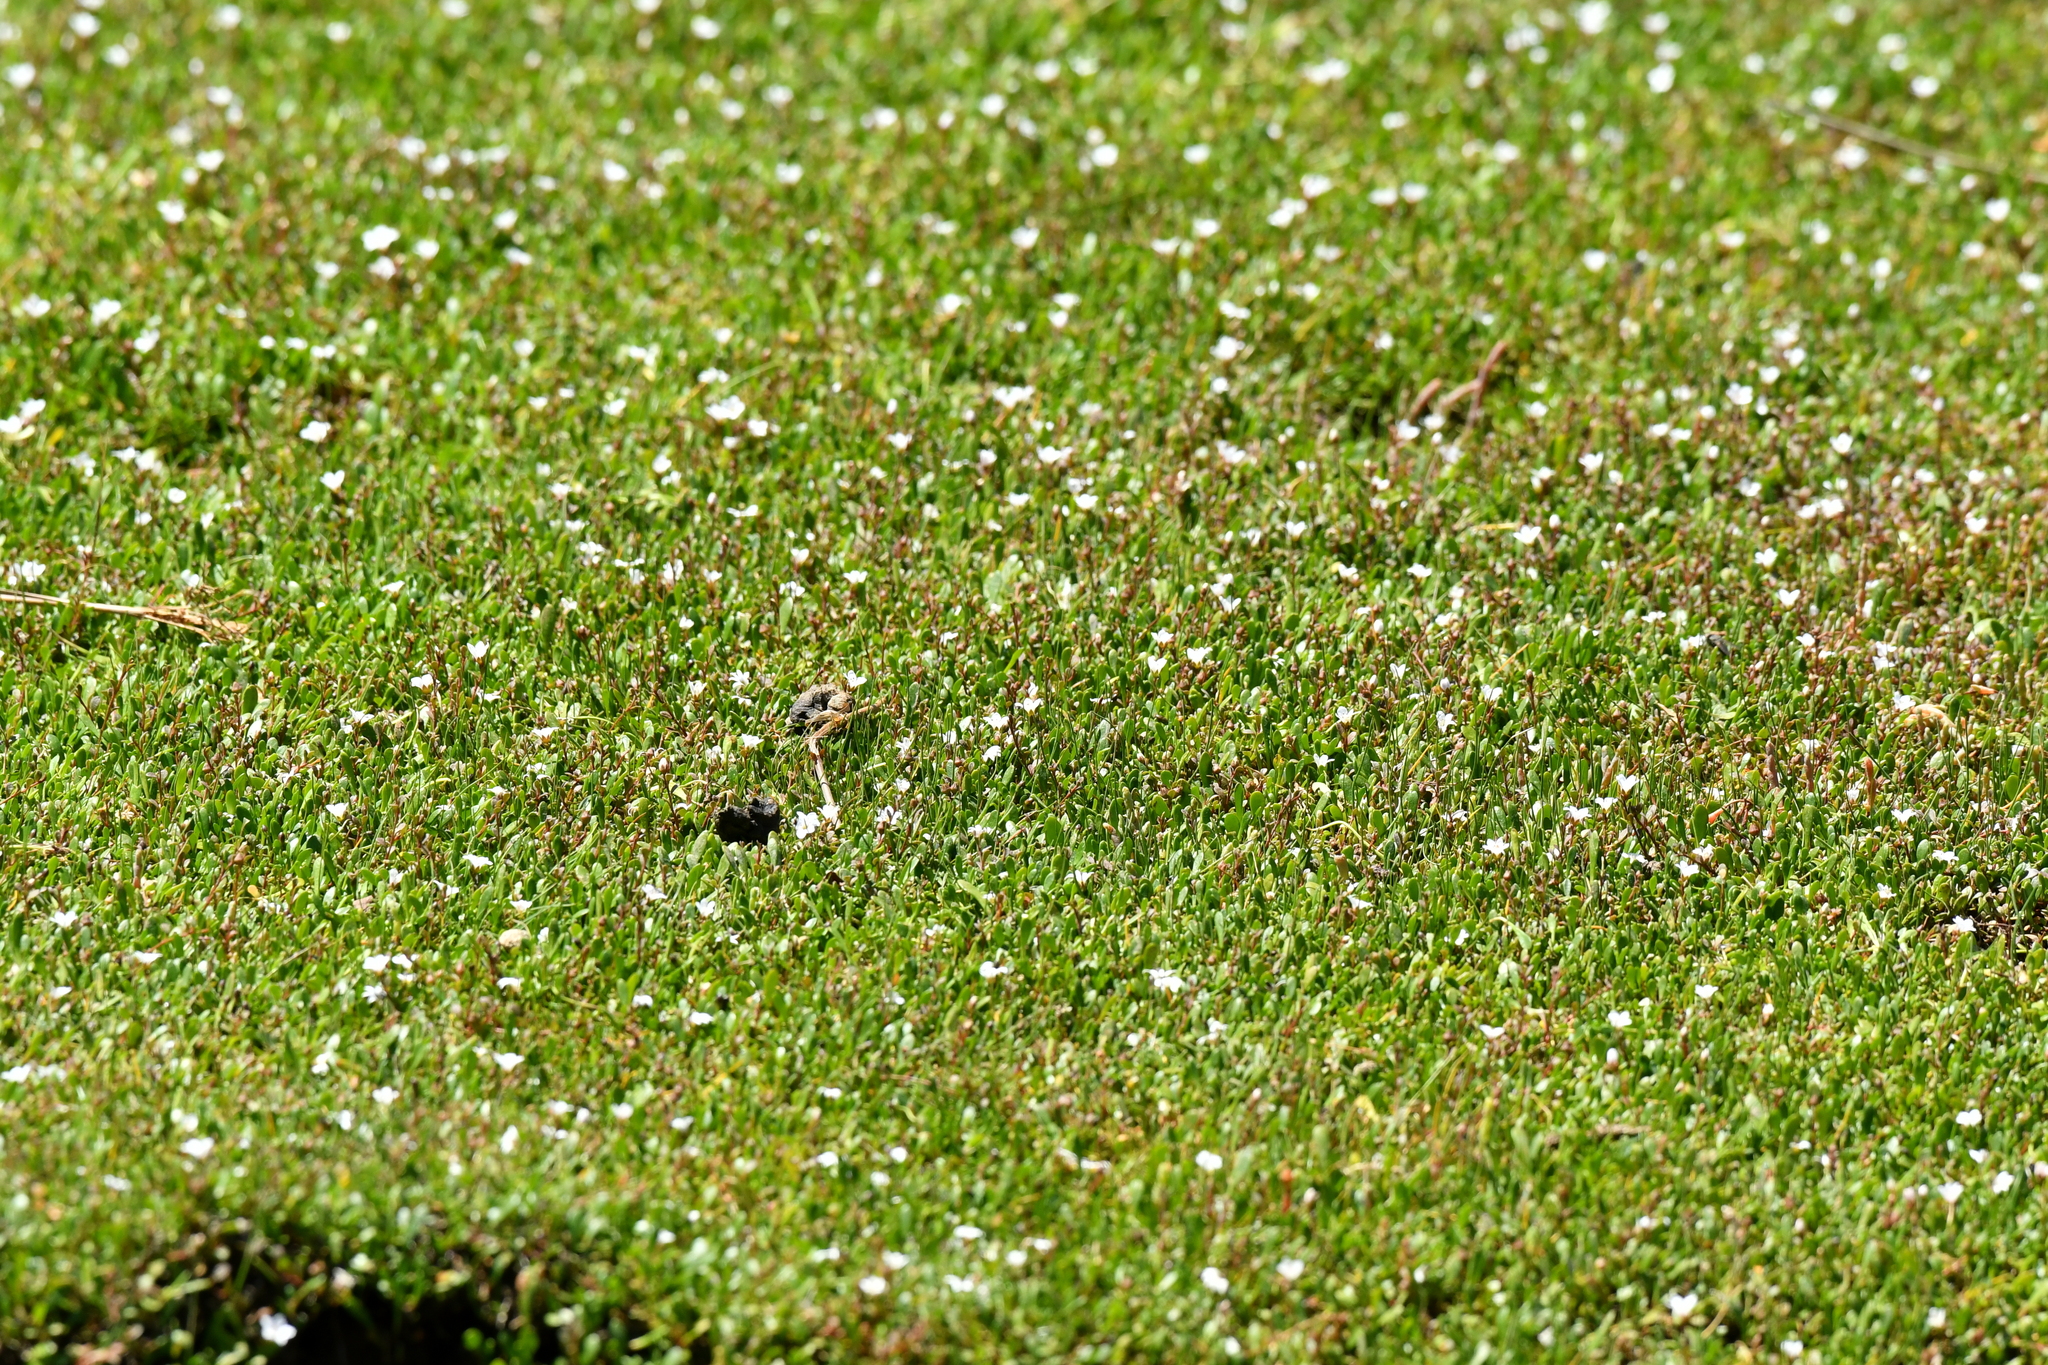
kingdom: Plantae
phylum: Tracheophyta
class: Magnoliopsida
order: Asterales
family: Goodeniaceae
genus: Goodenia
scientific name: Goodenia radicans
